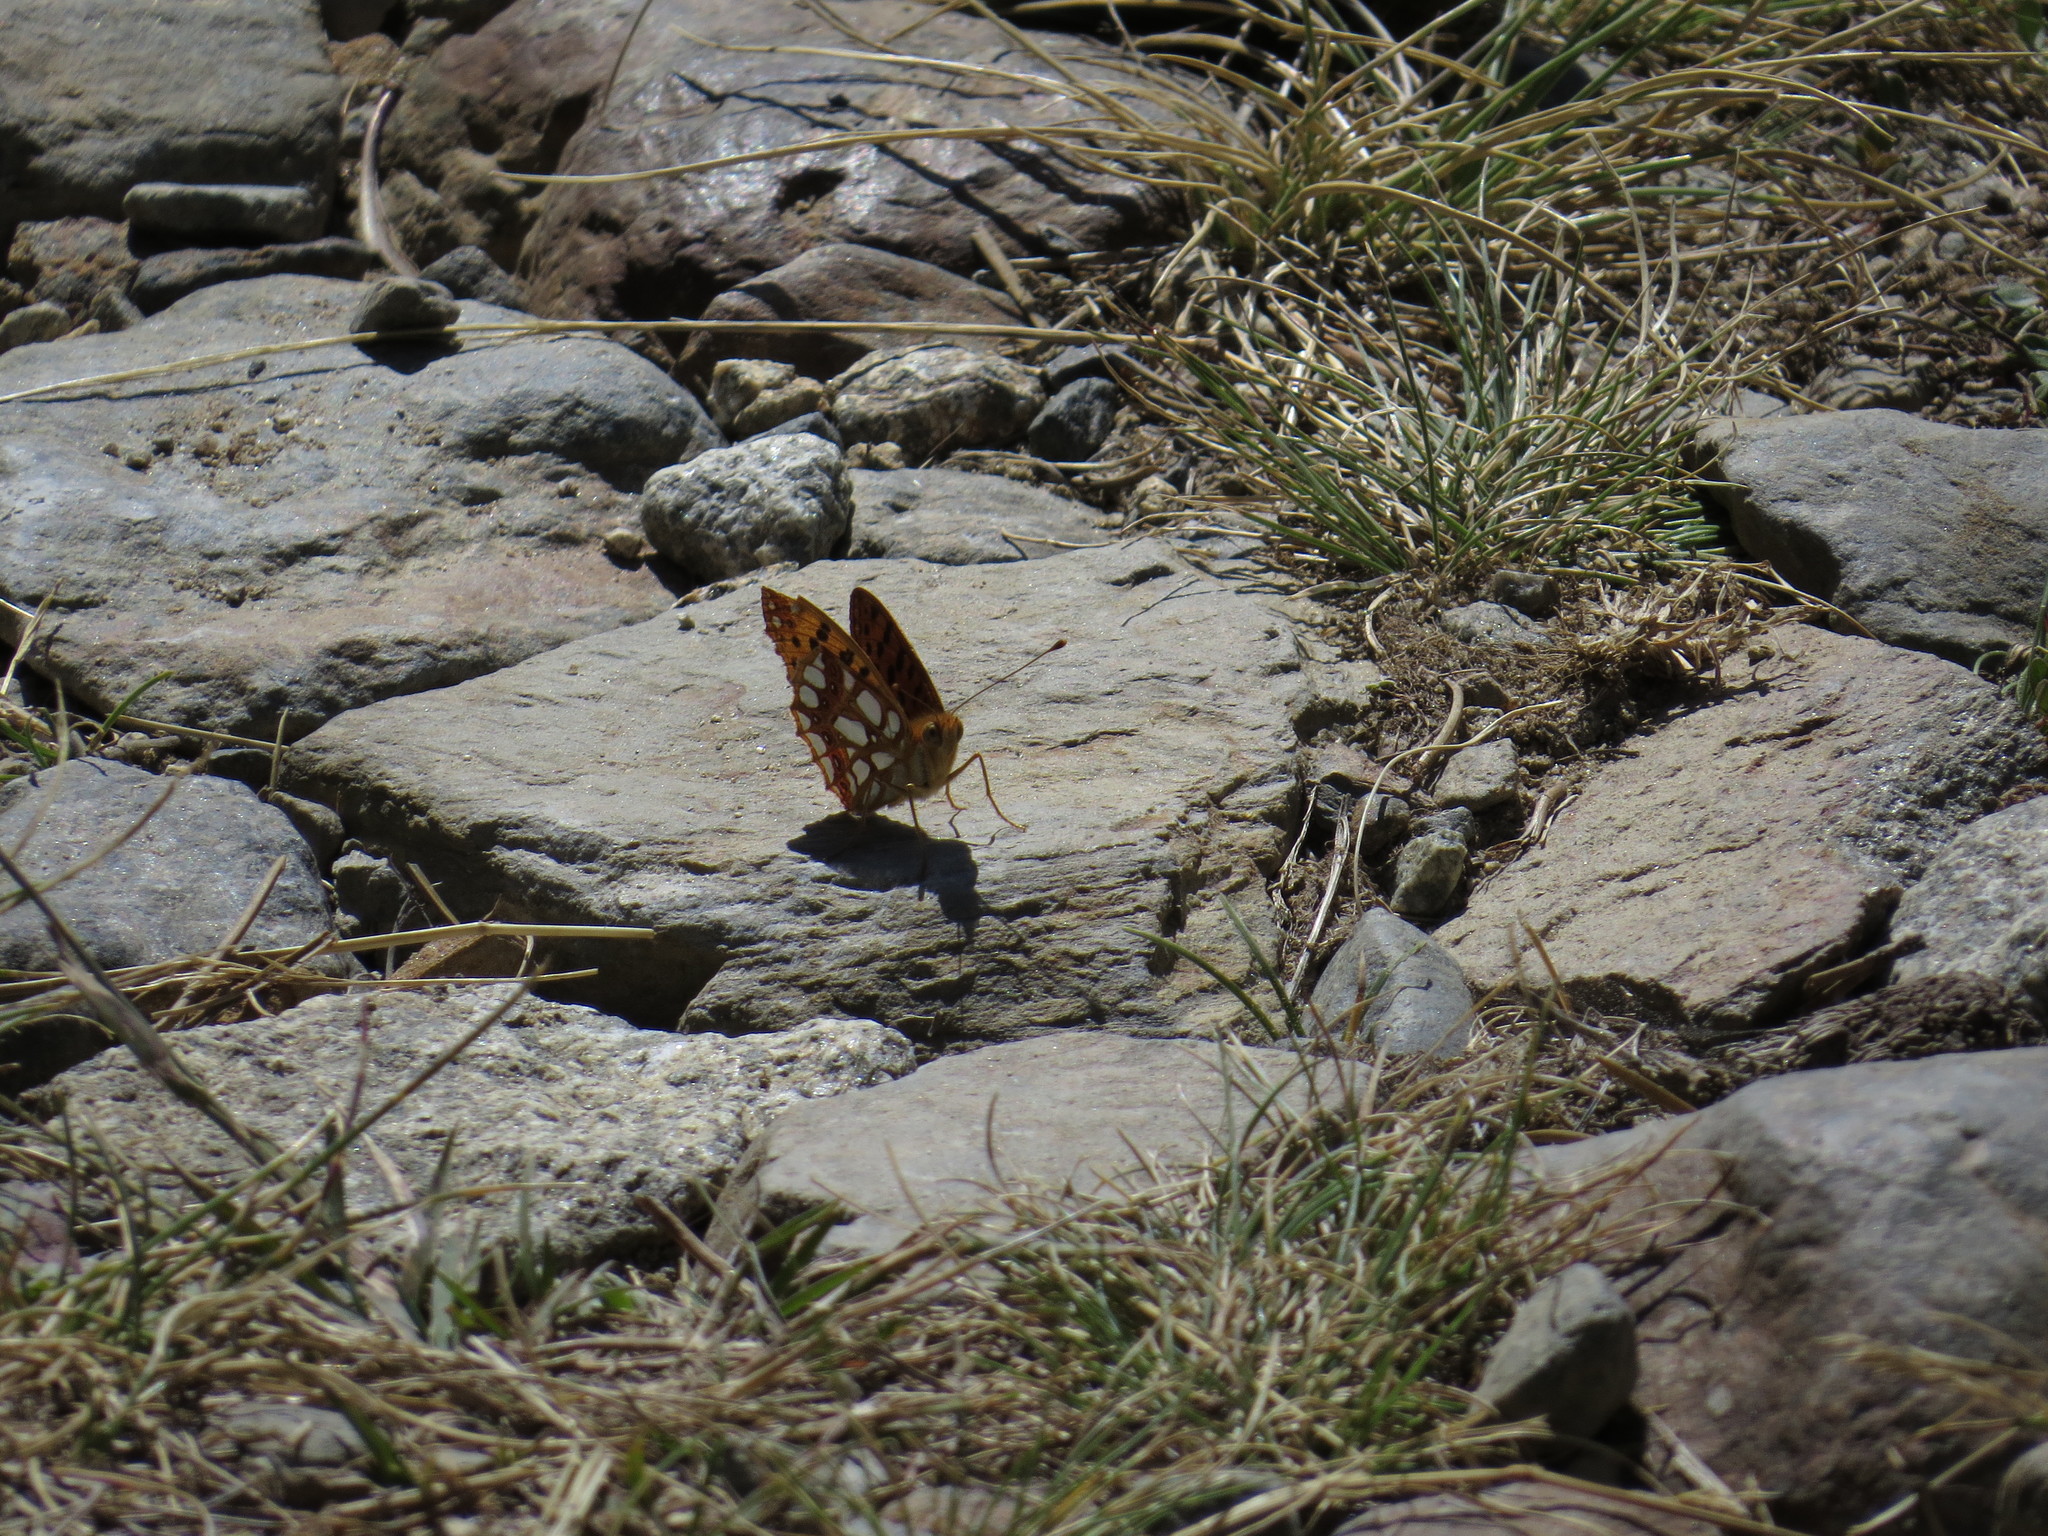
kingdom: Animalia
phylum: Arthropoda
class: Insecta
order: Lepidoptera
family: Nymphalidae
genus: Issoria
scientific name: Issoria lathonia
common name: Queen of spain fritillary
